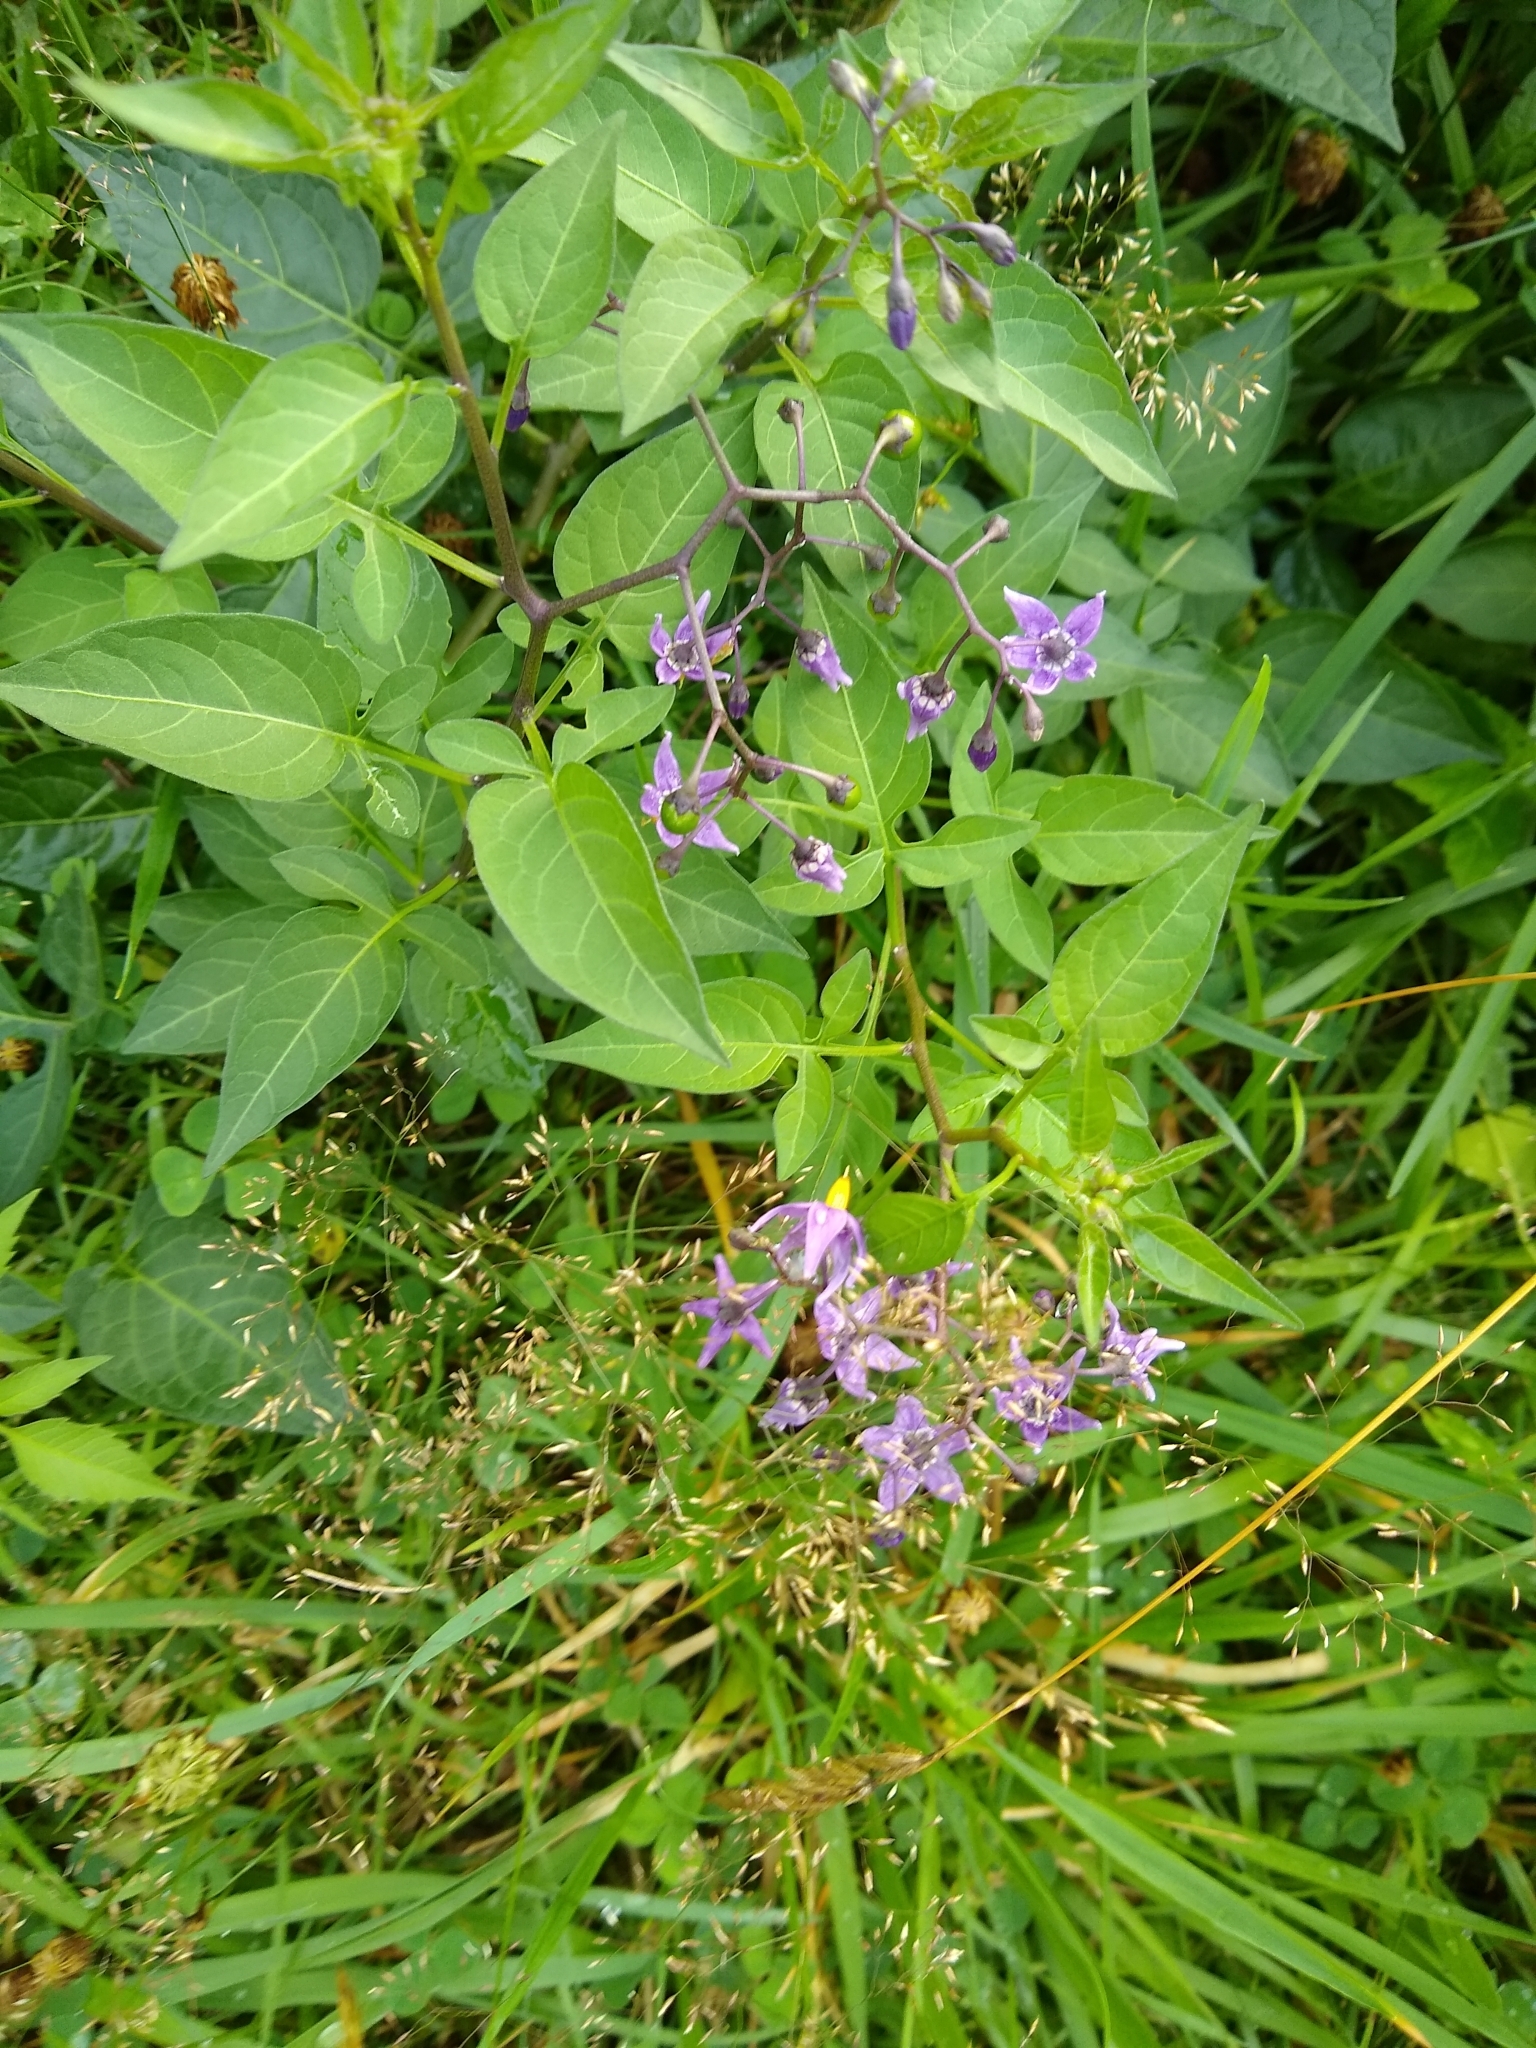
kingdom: Plantae
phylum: Tracheophyta
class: Magnoliopsida
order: Solanales
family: Solanaceae
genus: Solanum
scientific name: Solanum dulcamara
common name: Climbing nightshade
